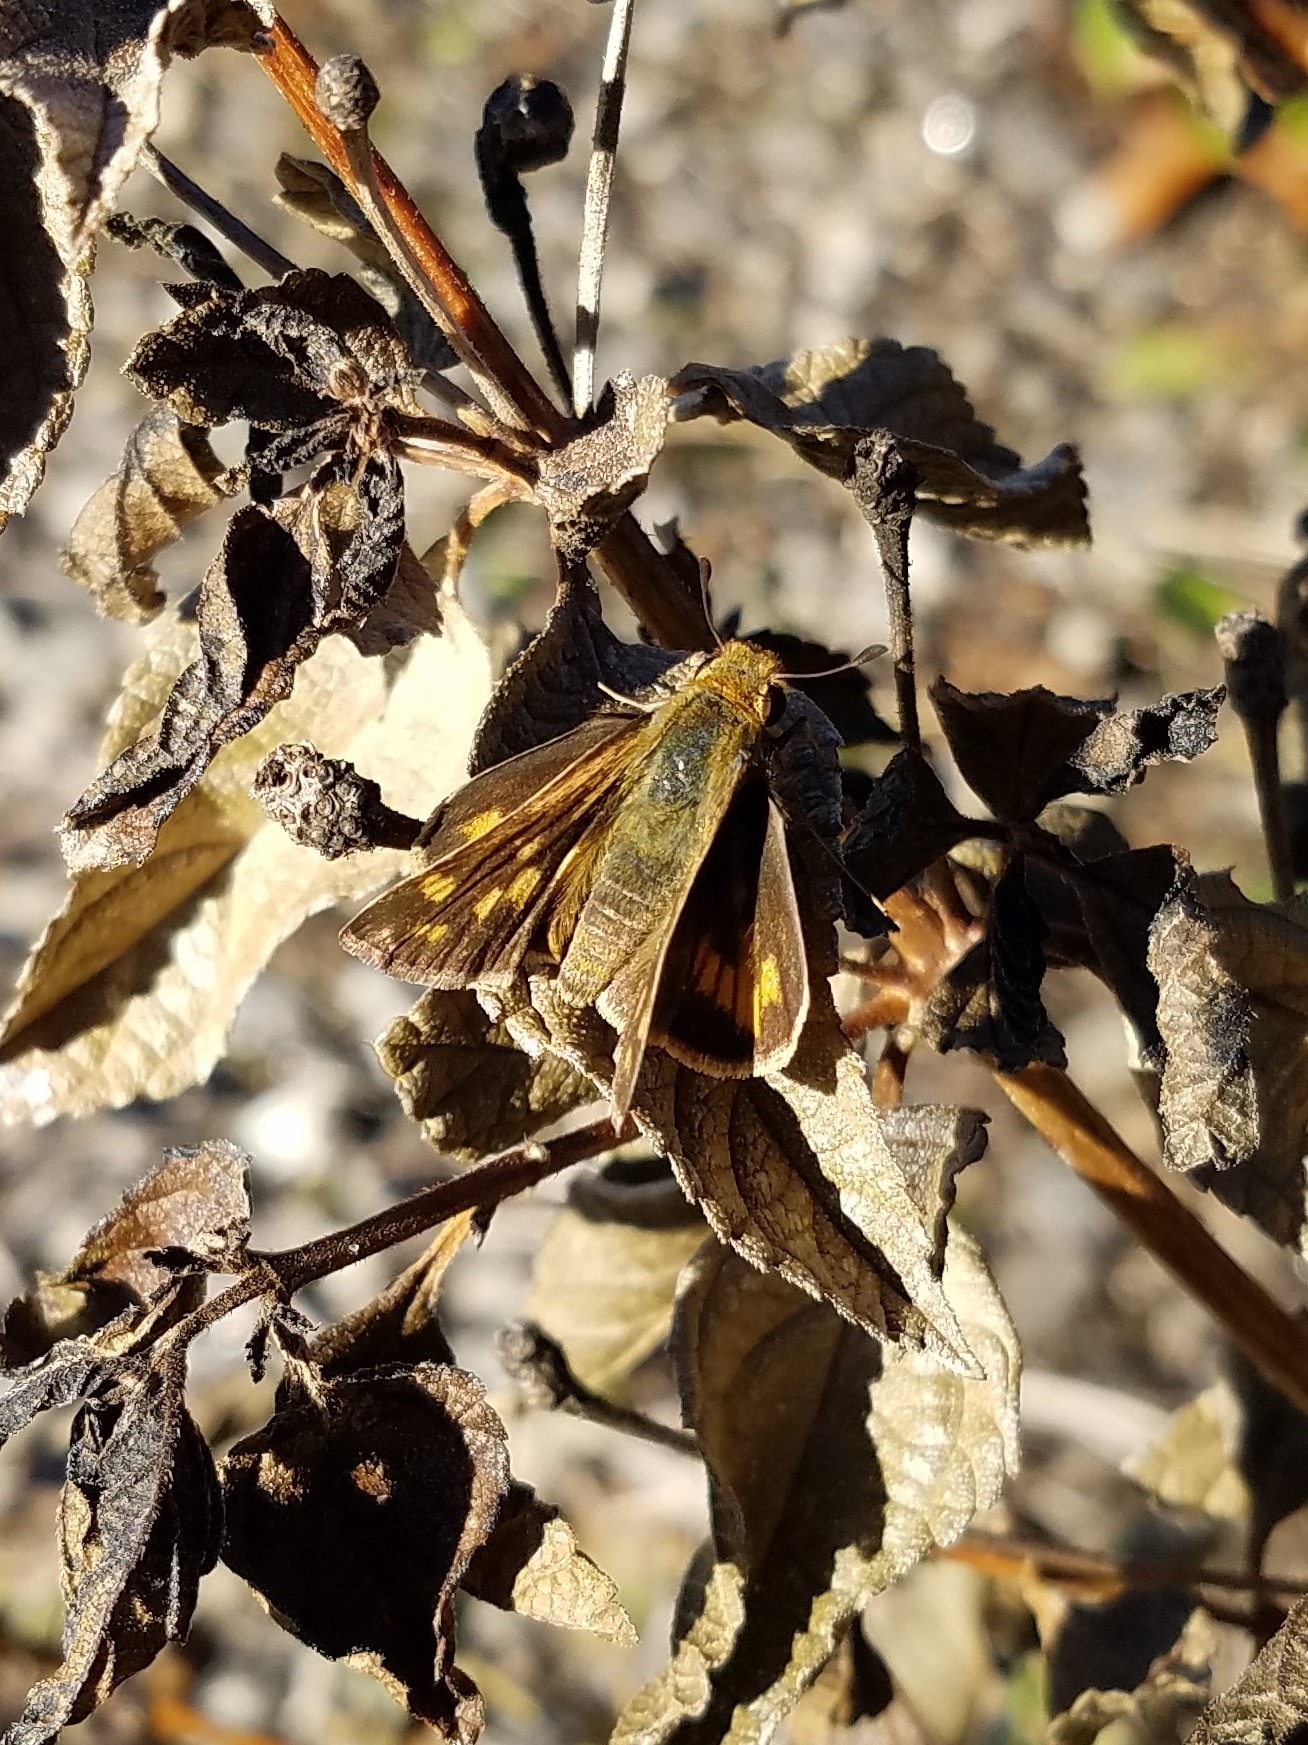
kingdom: Animalia
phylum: Arthropoda
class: Insecta
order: Lepidoptera
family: Hesperiidae
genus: Hylephila
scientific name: Hylephila phyleus
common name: Fiery skipper
